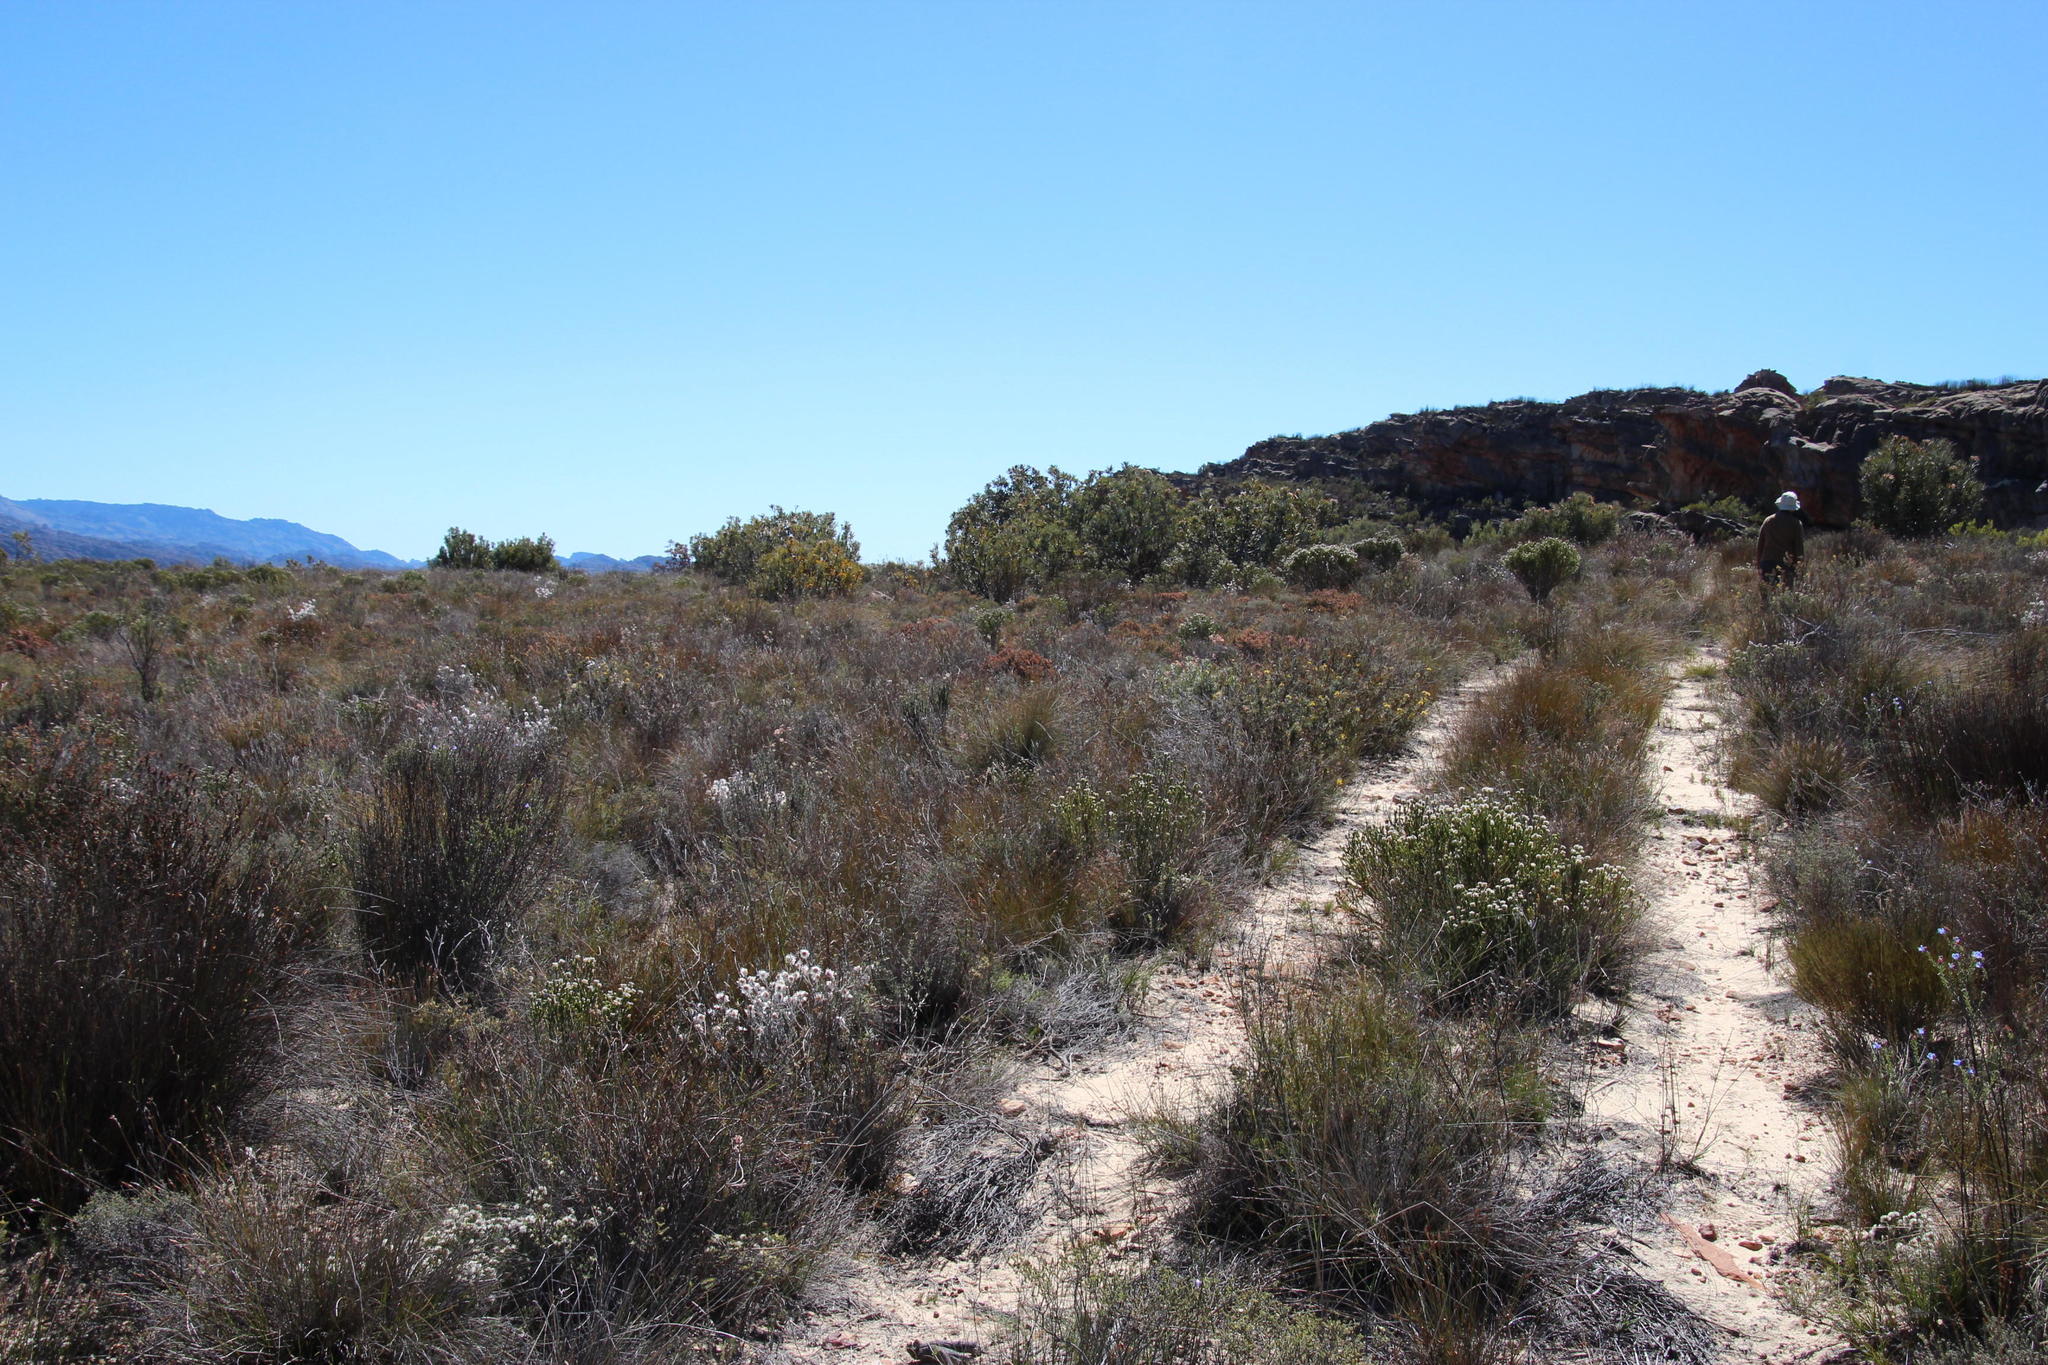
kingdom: Plantae
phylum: Tracheophyta
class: Magnoliopsida
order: Proteales
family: Proteaceae
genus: Serruria
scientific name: Serruria flava
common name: Spiderhead
